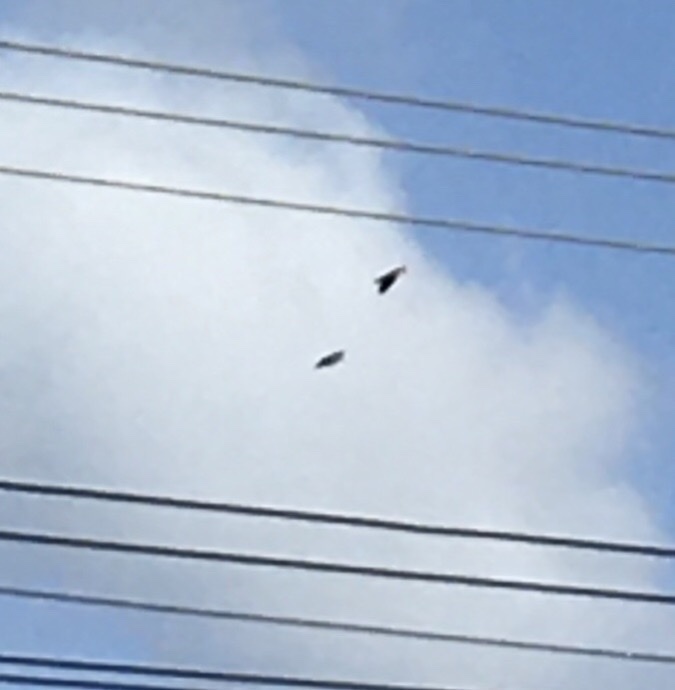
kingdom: Animalia
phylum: Chordata
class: Aves
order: Charadriiformes
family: Charadriidae
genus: Vanellus
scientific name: Vanellus miles
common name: Masked lapwing
